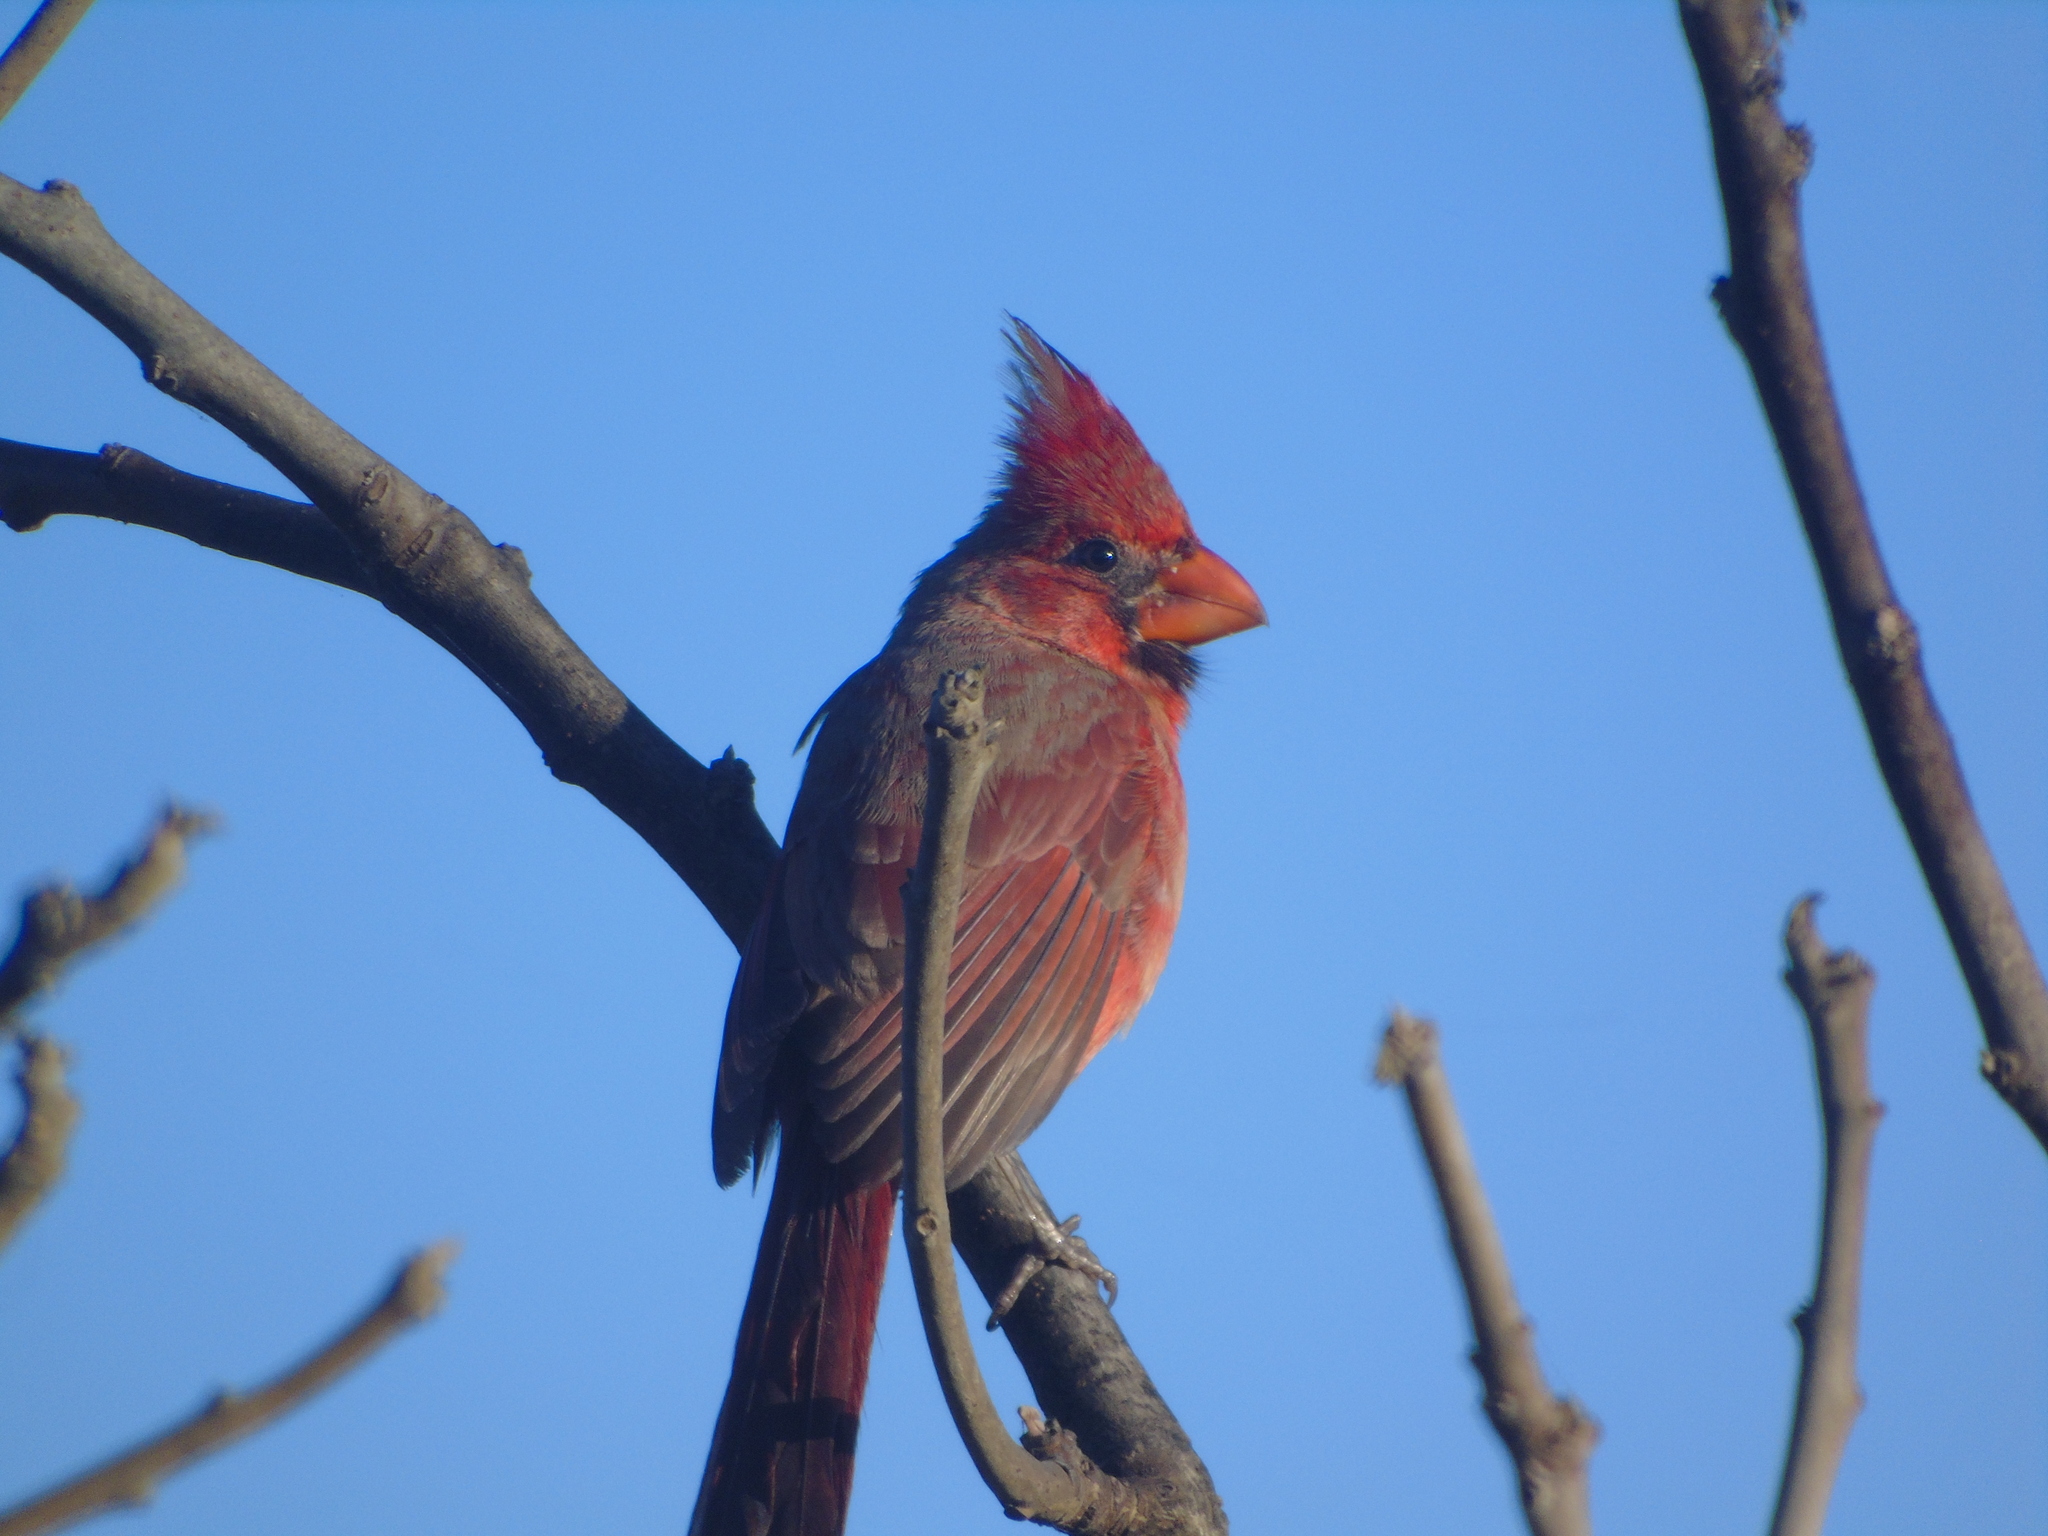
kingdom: Animalia
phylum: Chordata
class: Aves
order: Passeriformes
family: Cardinalidae
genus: Cardinalis
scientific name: Cardinalis cardinalis
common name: Northern cardinal
